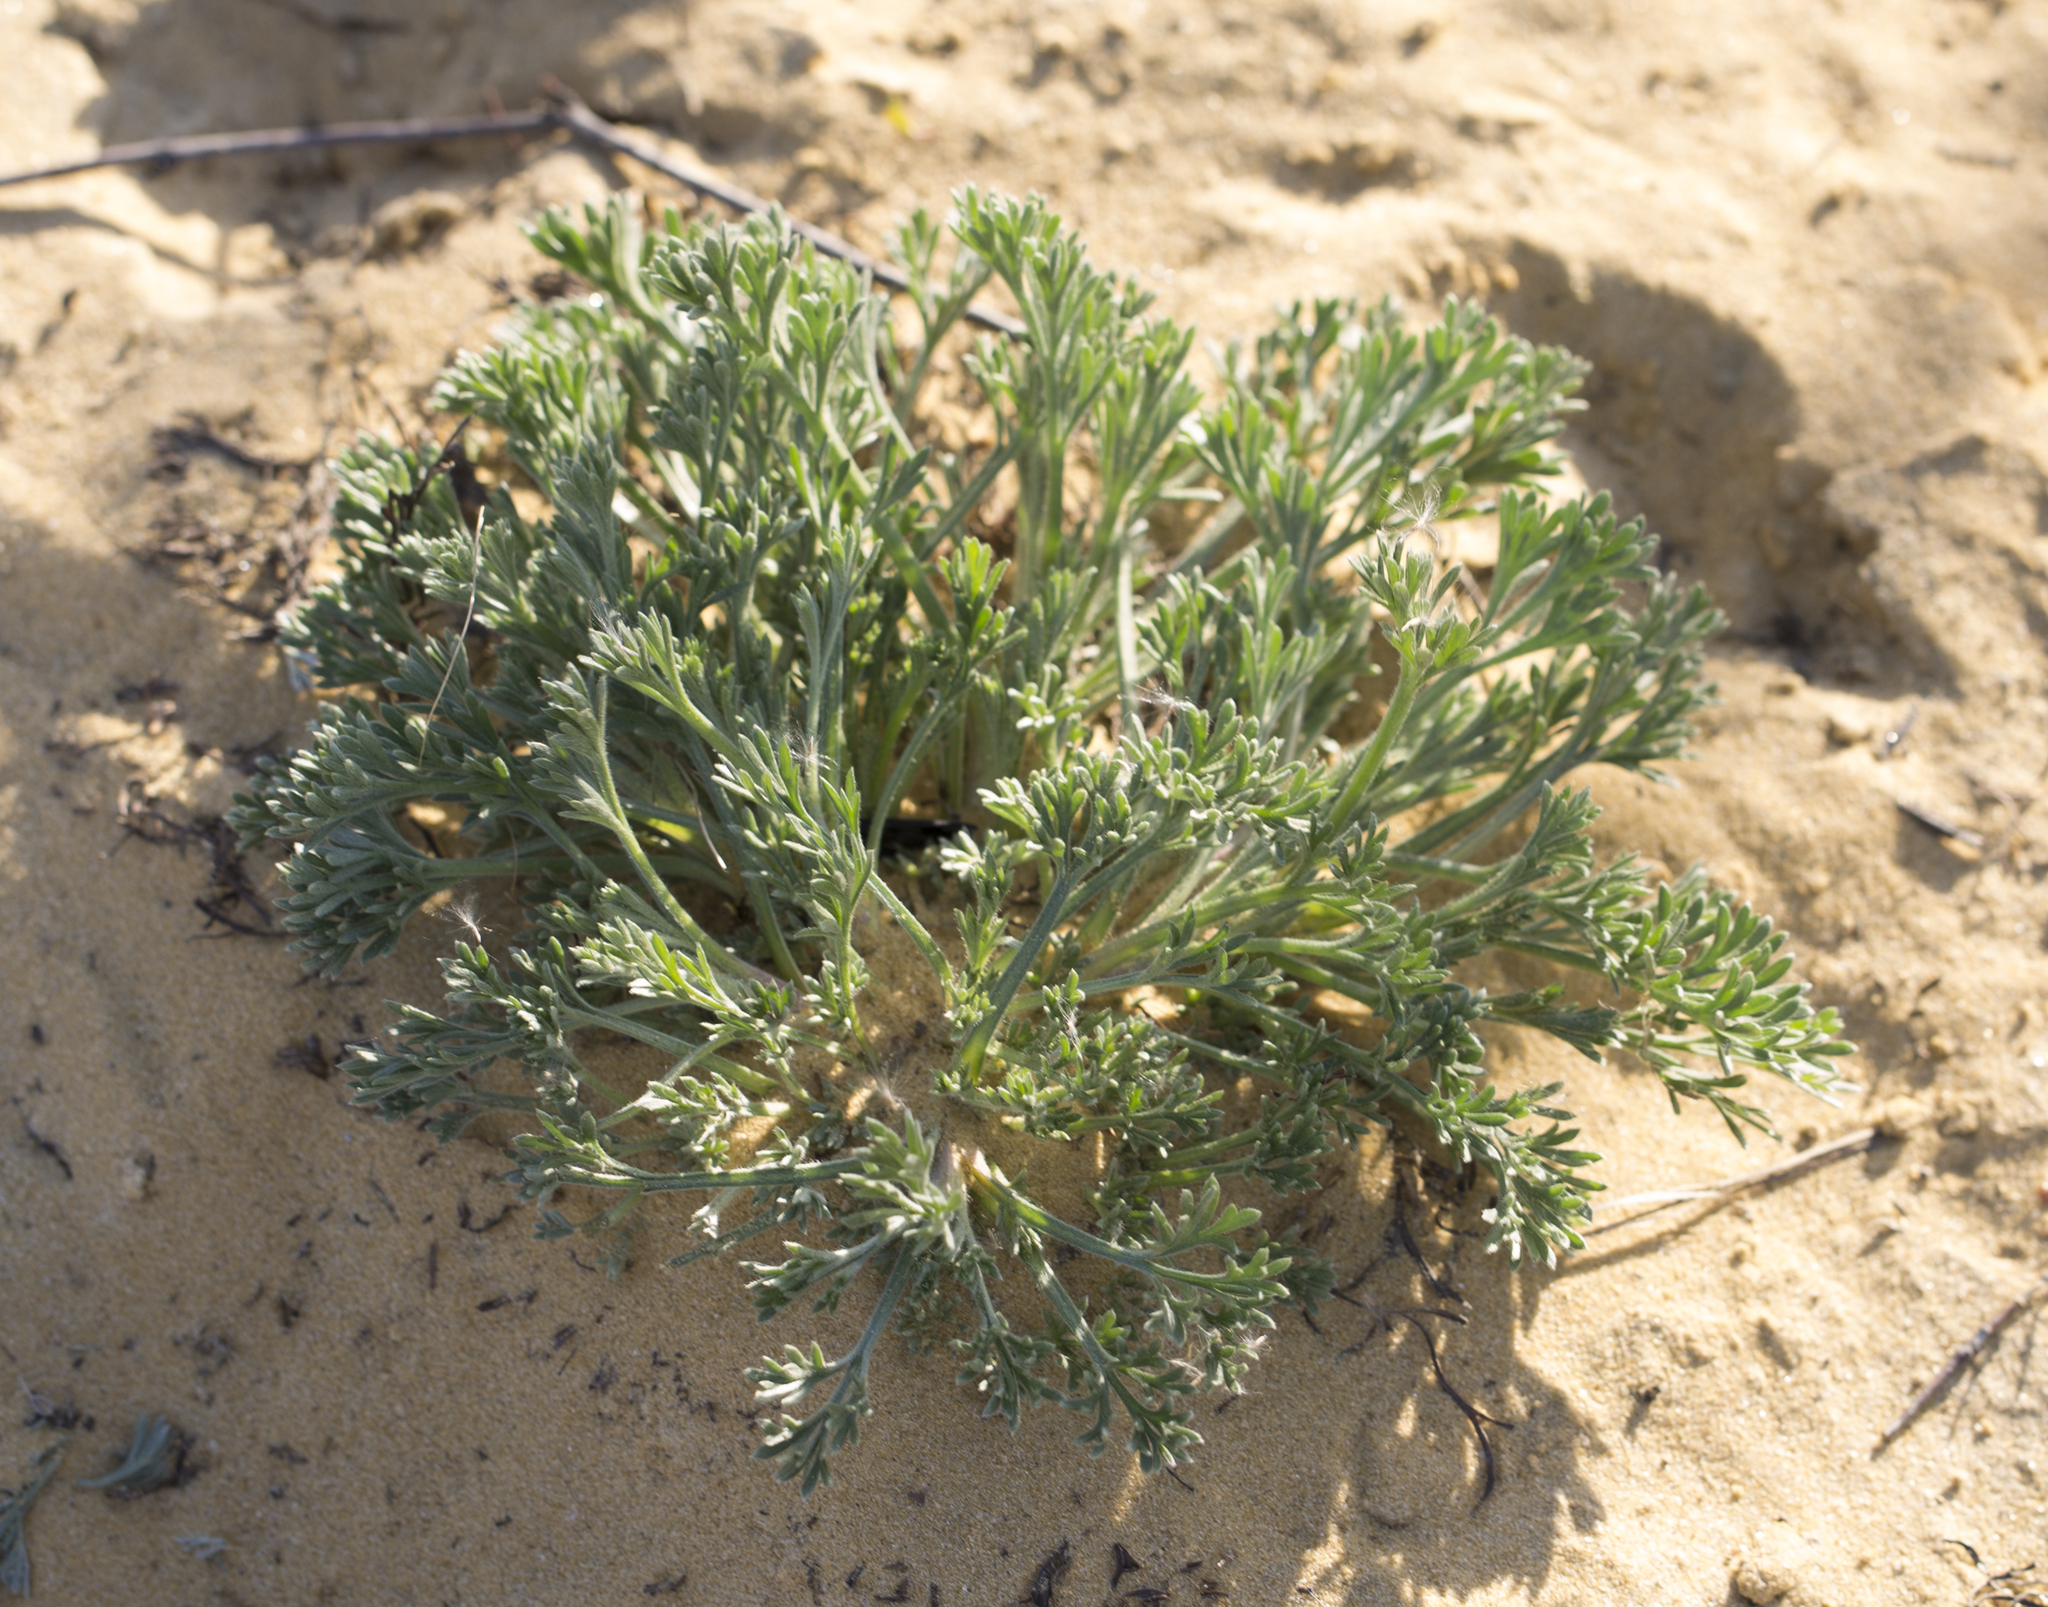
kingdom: Plantae
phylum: Tracheophyta
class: Magnoliopsida
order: Asterales
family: Asteraceae
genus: Artemisia
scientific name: Artemisia campestris
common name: Field wormwood
